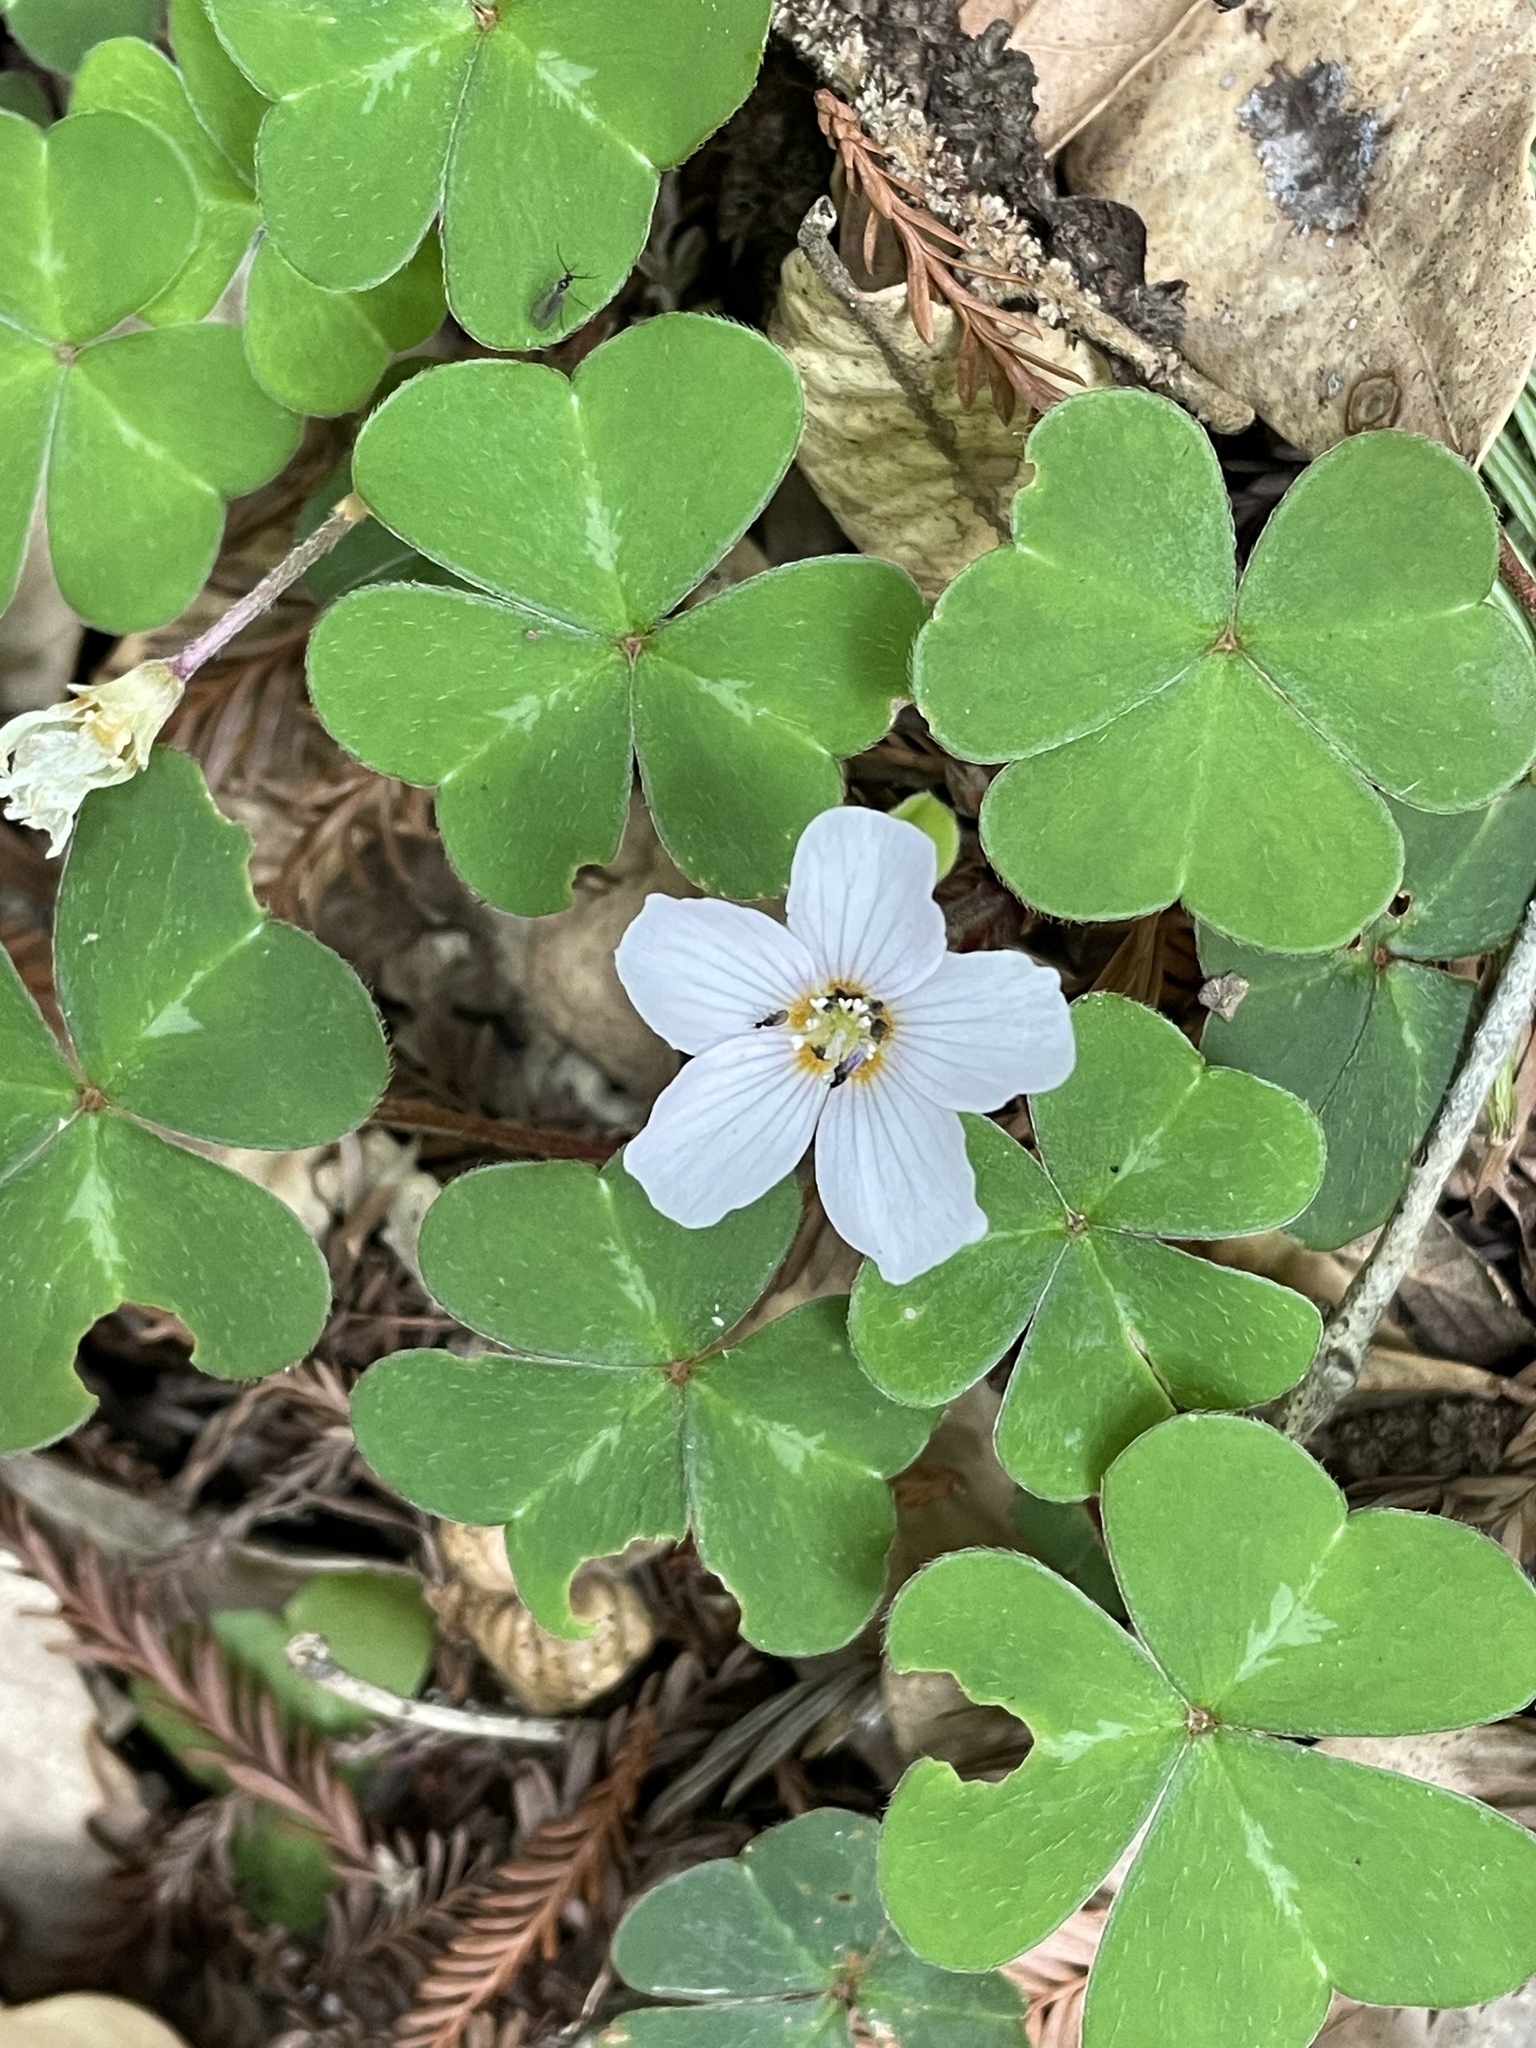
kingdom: Plantae
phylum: Tracheophyta
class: Magnoliopsida
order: Oxalidales
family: Oxalidaceae
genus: Oxalis
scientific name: Oxalis oregana
